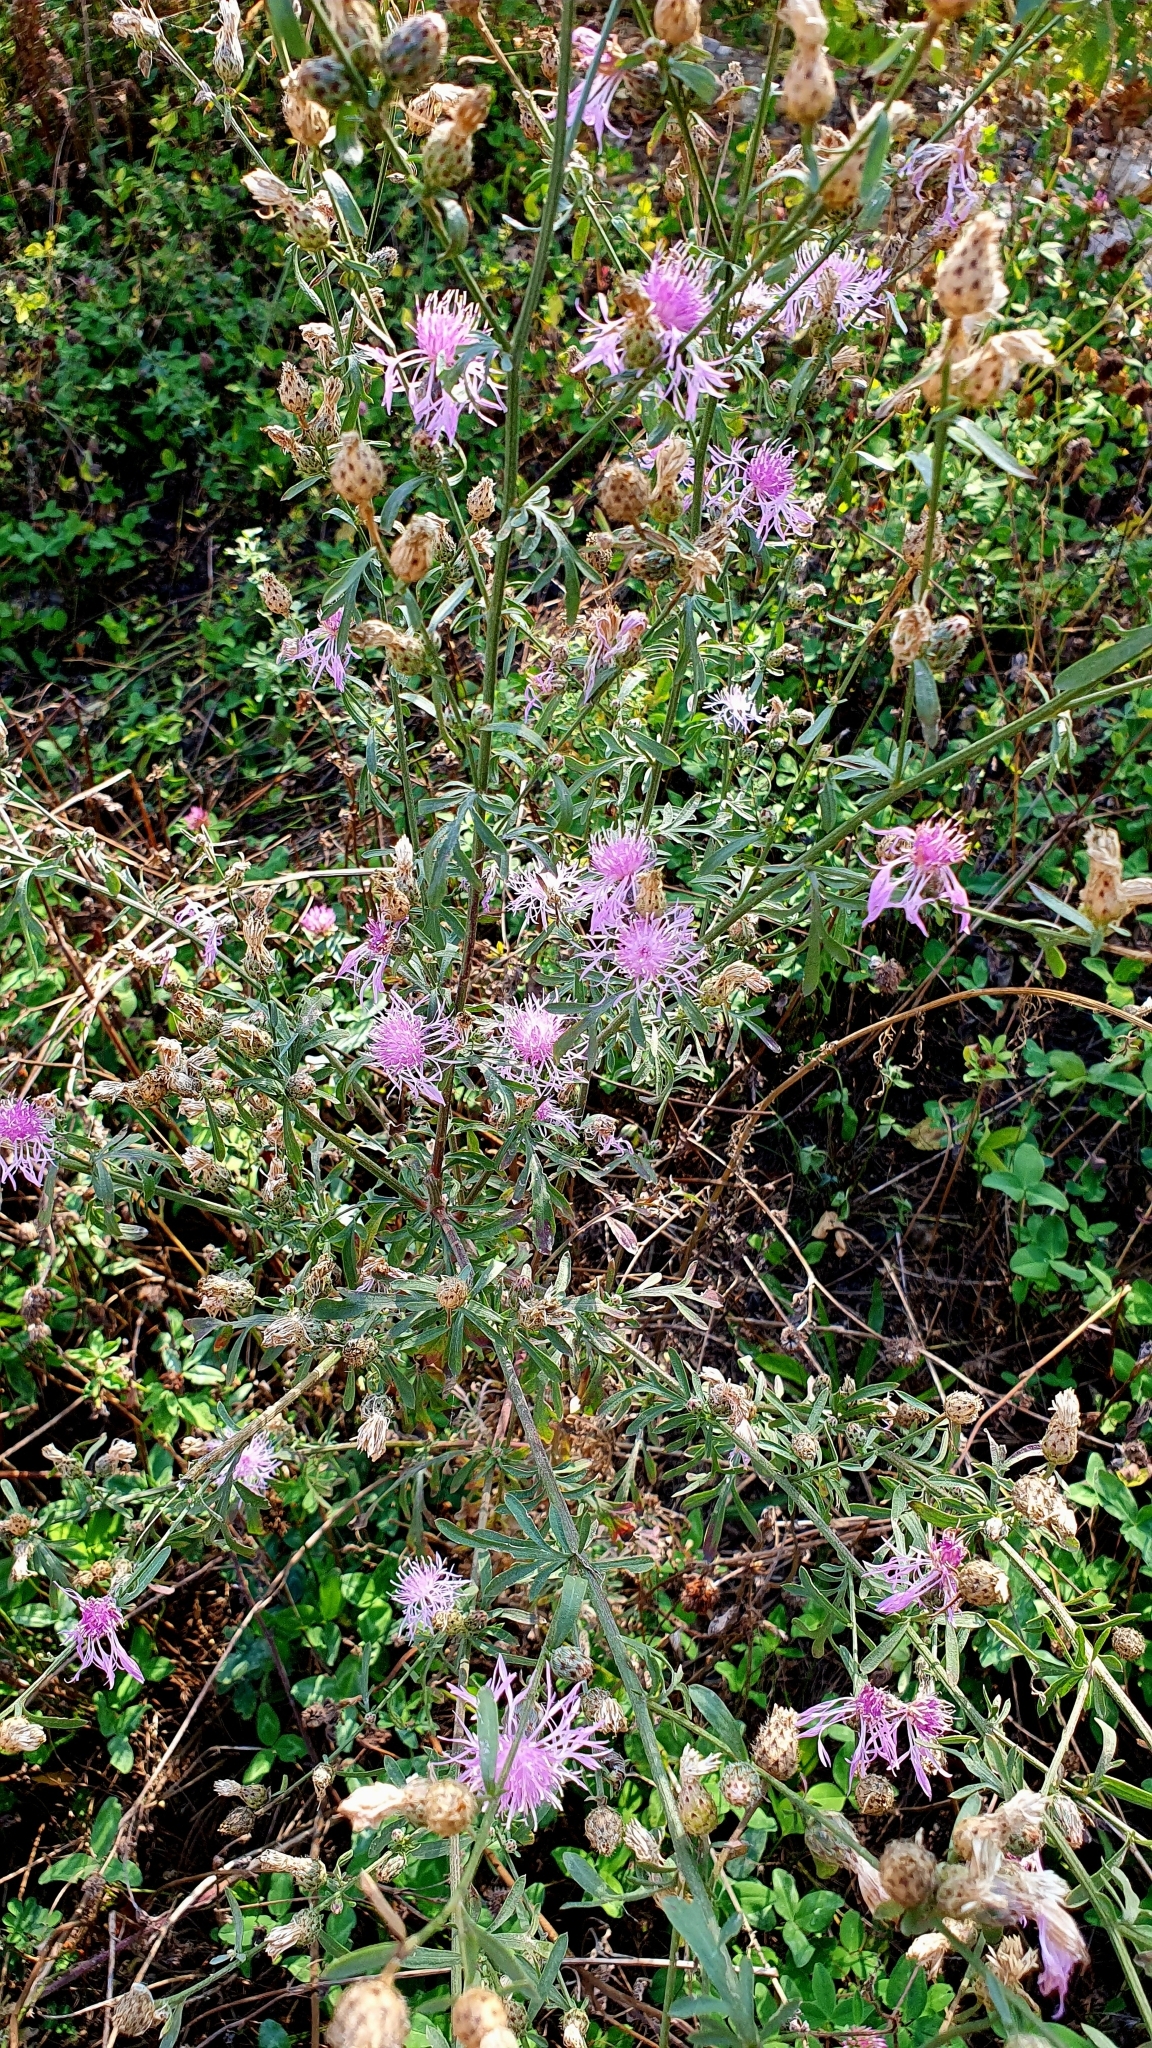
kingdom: Plantae
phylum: Tracheophyta
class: Magnoliopsida
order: Asterales
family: Asteraceae
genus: Centaurea
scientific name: Centaurea stoebe
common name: Spotted knapweed
